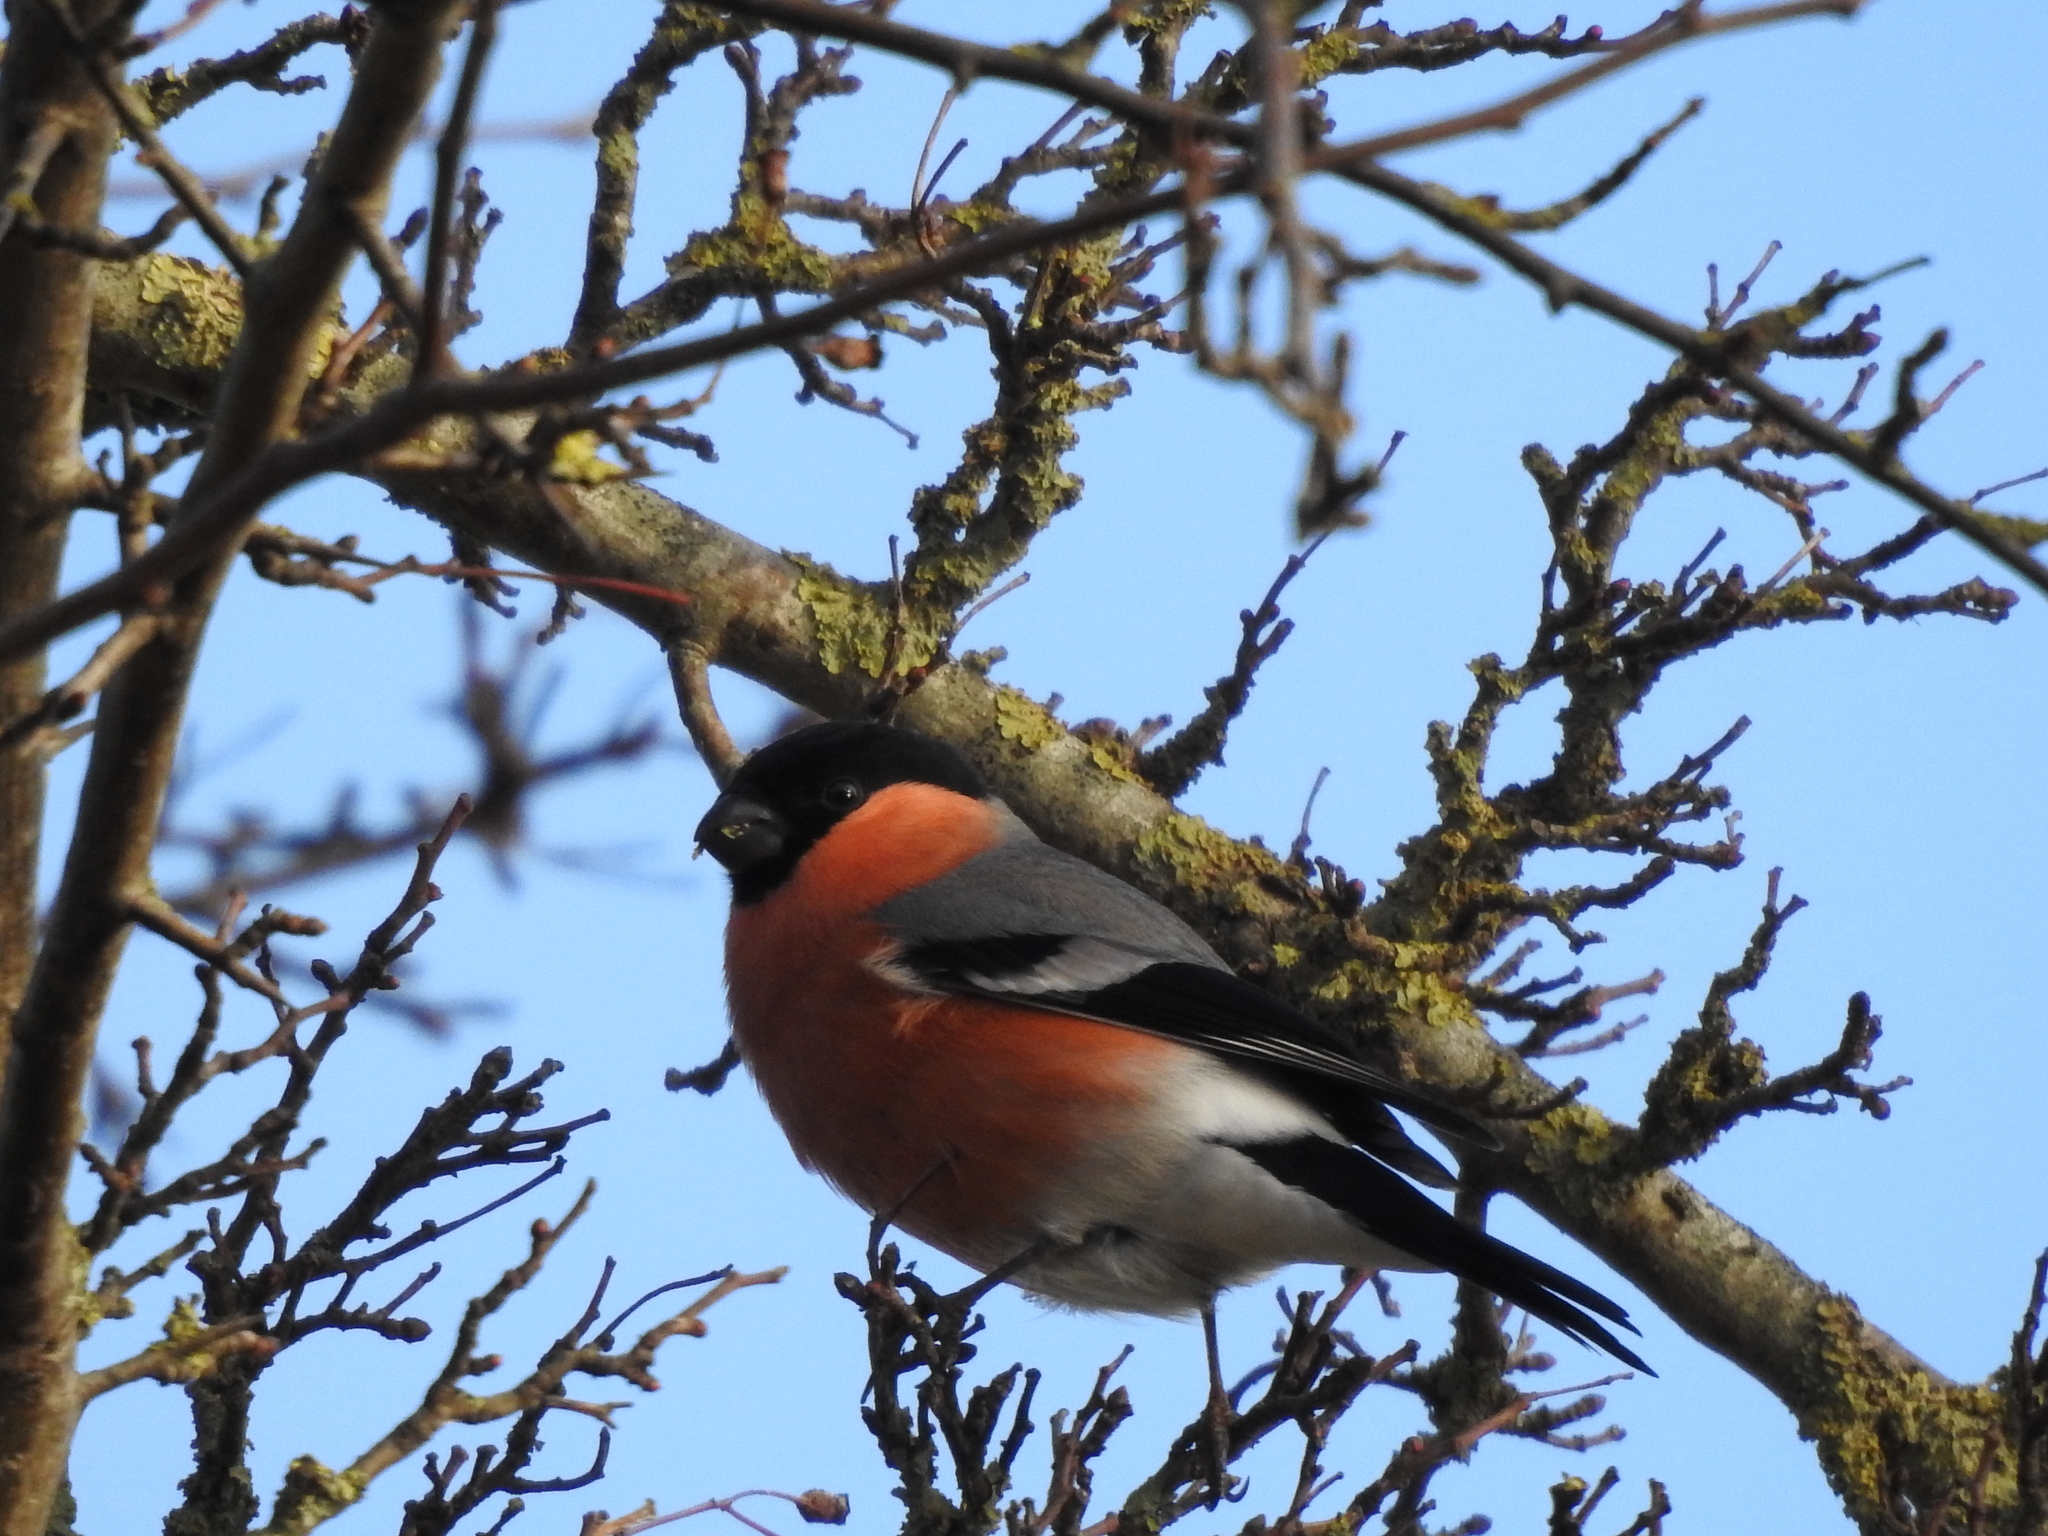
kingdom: Animalia
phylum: Chordata
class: Aves
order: Passeriformes
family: Fringillidae
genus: Pyrrhula
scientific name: Pyrrhula pyrrhula
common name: Eurasian bullfinch
